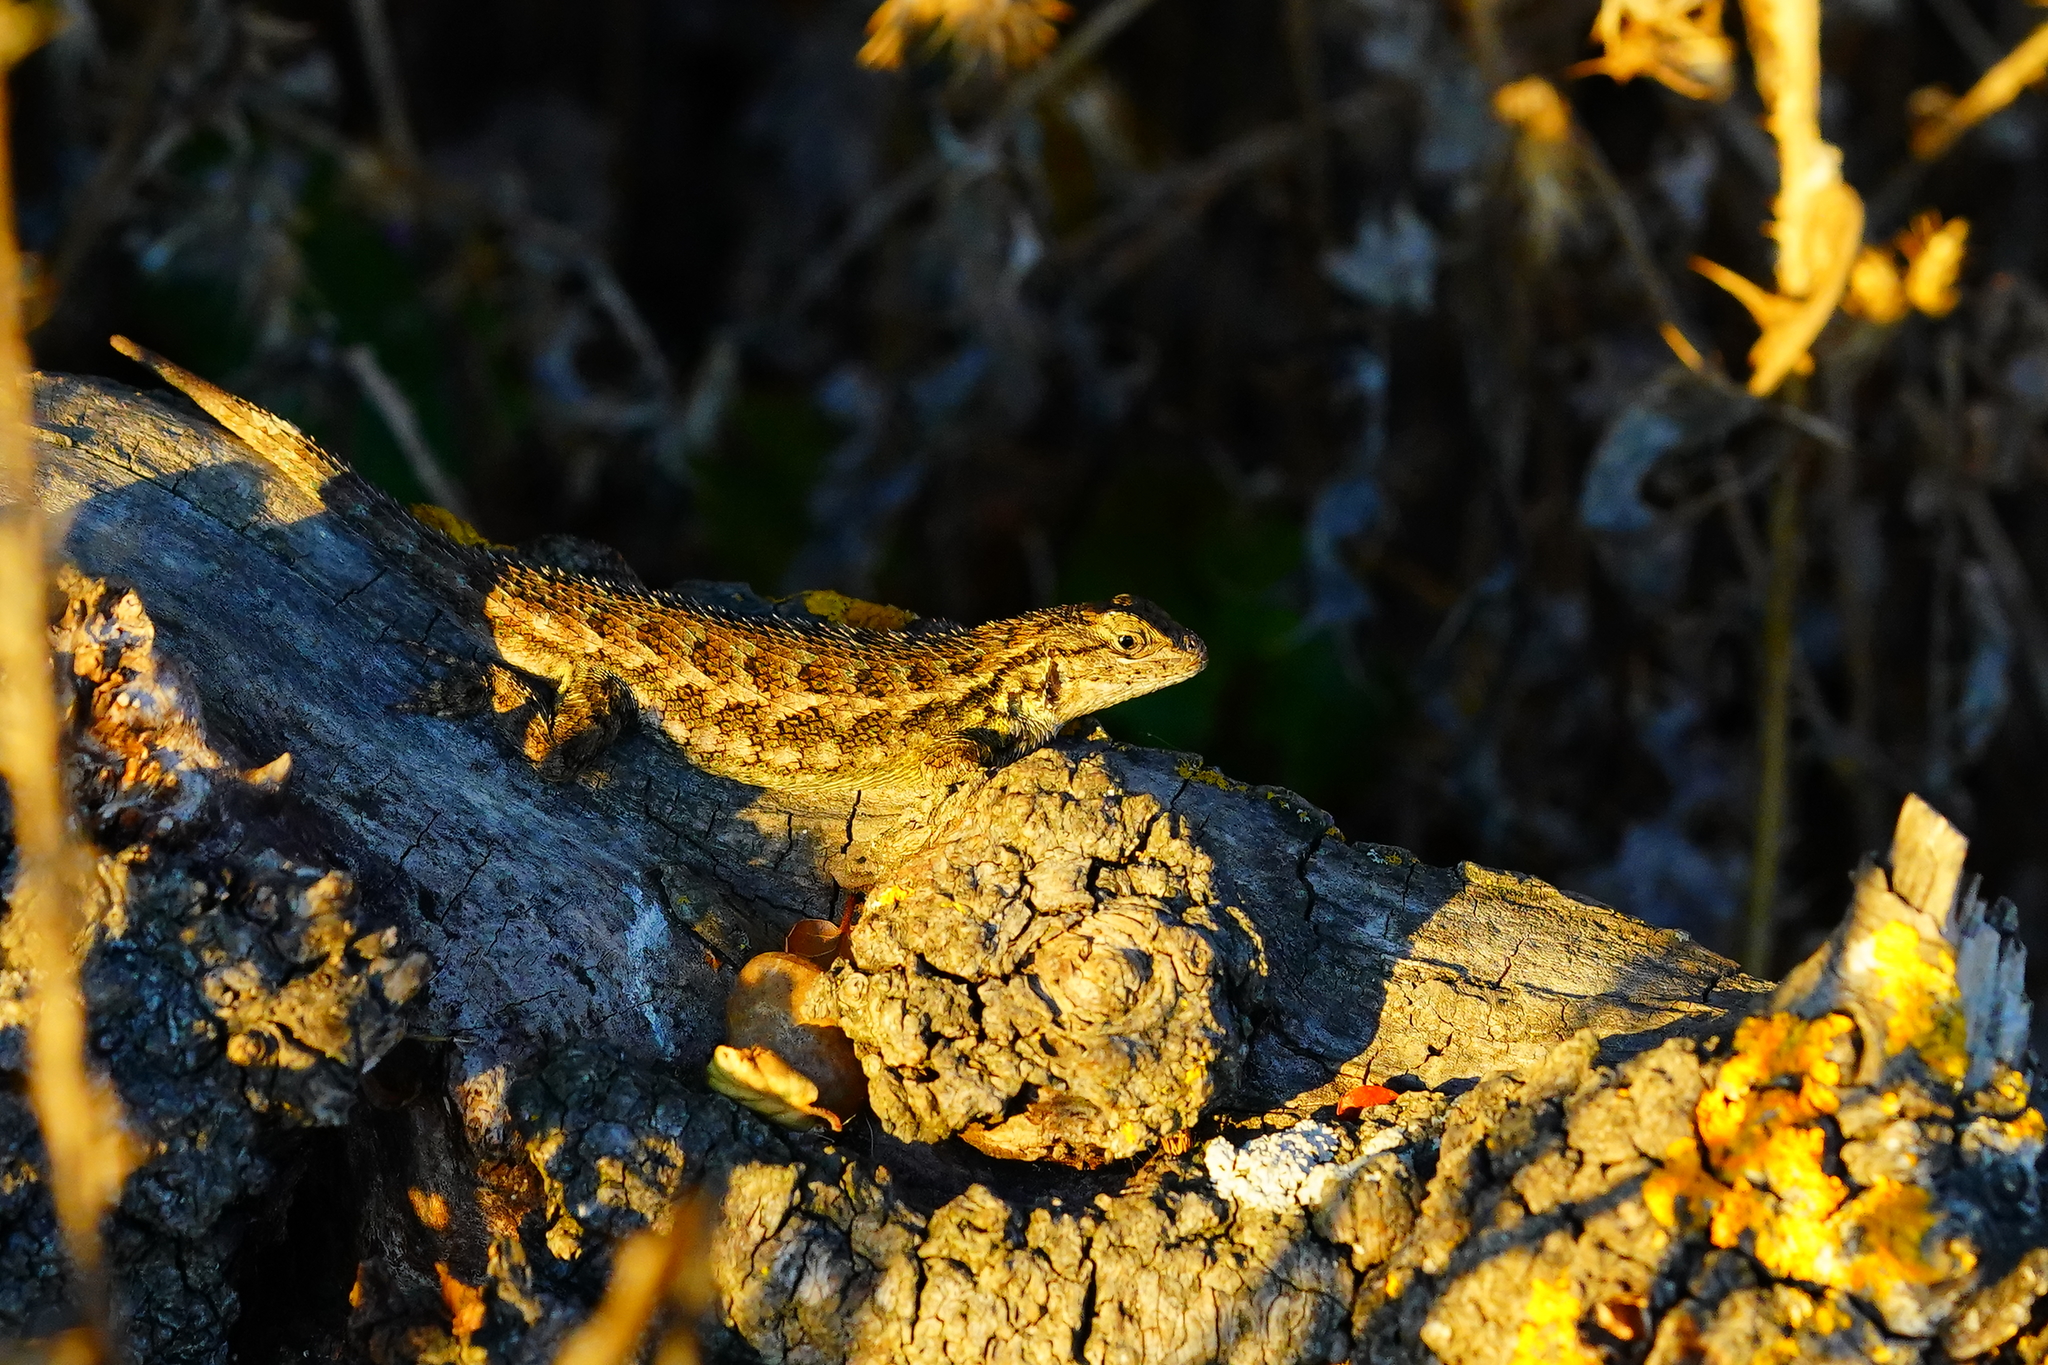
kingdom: Animalia
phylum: Chordata
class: Squamata
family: Phrynosomatidae
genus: Sceloporus
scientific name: Sceloporus occidentalis
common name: Western fence lizard
